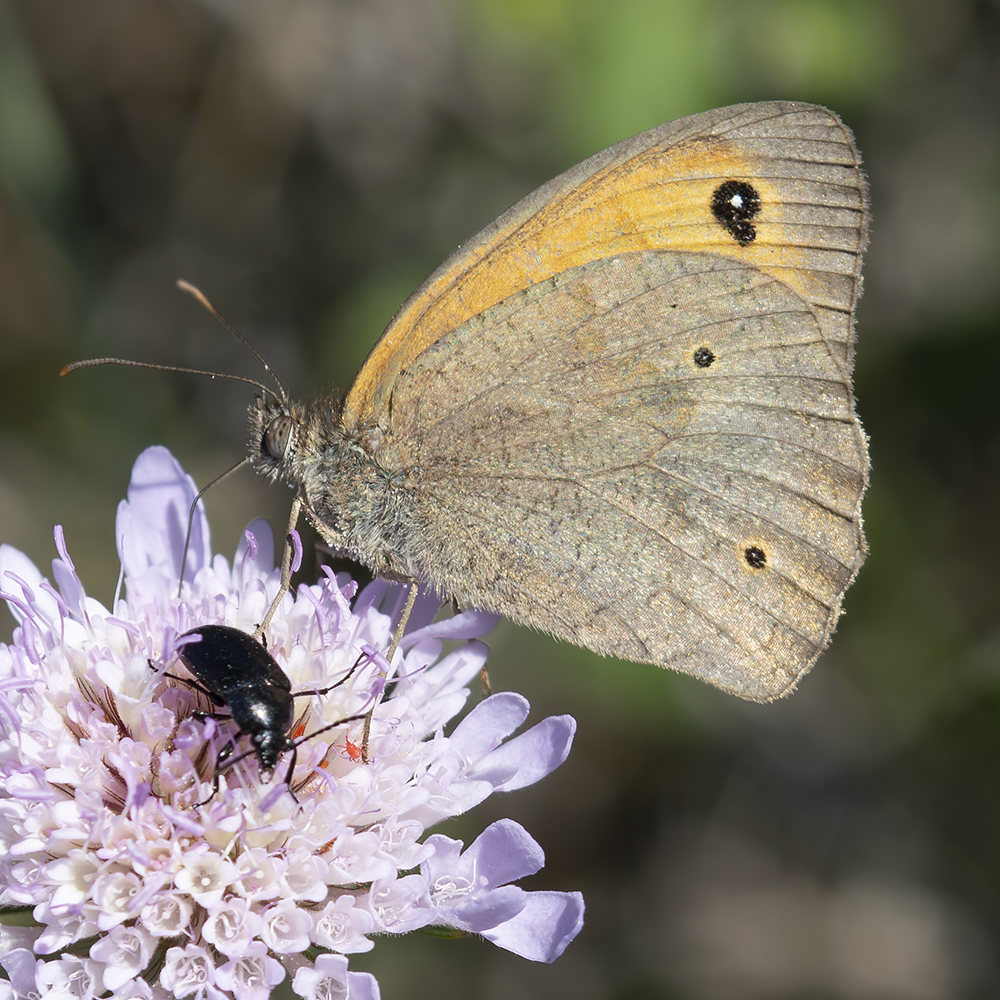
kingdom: Animalia
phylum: Arthropoda
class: Insecta
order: Lepidoptera
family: Nymphalidae
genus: Maniola
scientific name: Maniola jurtina
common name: Meadow brown
